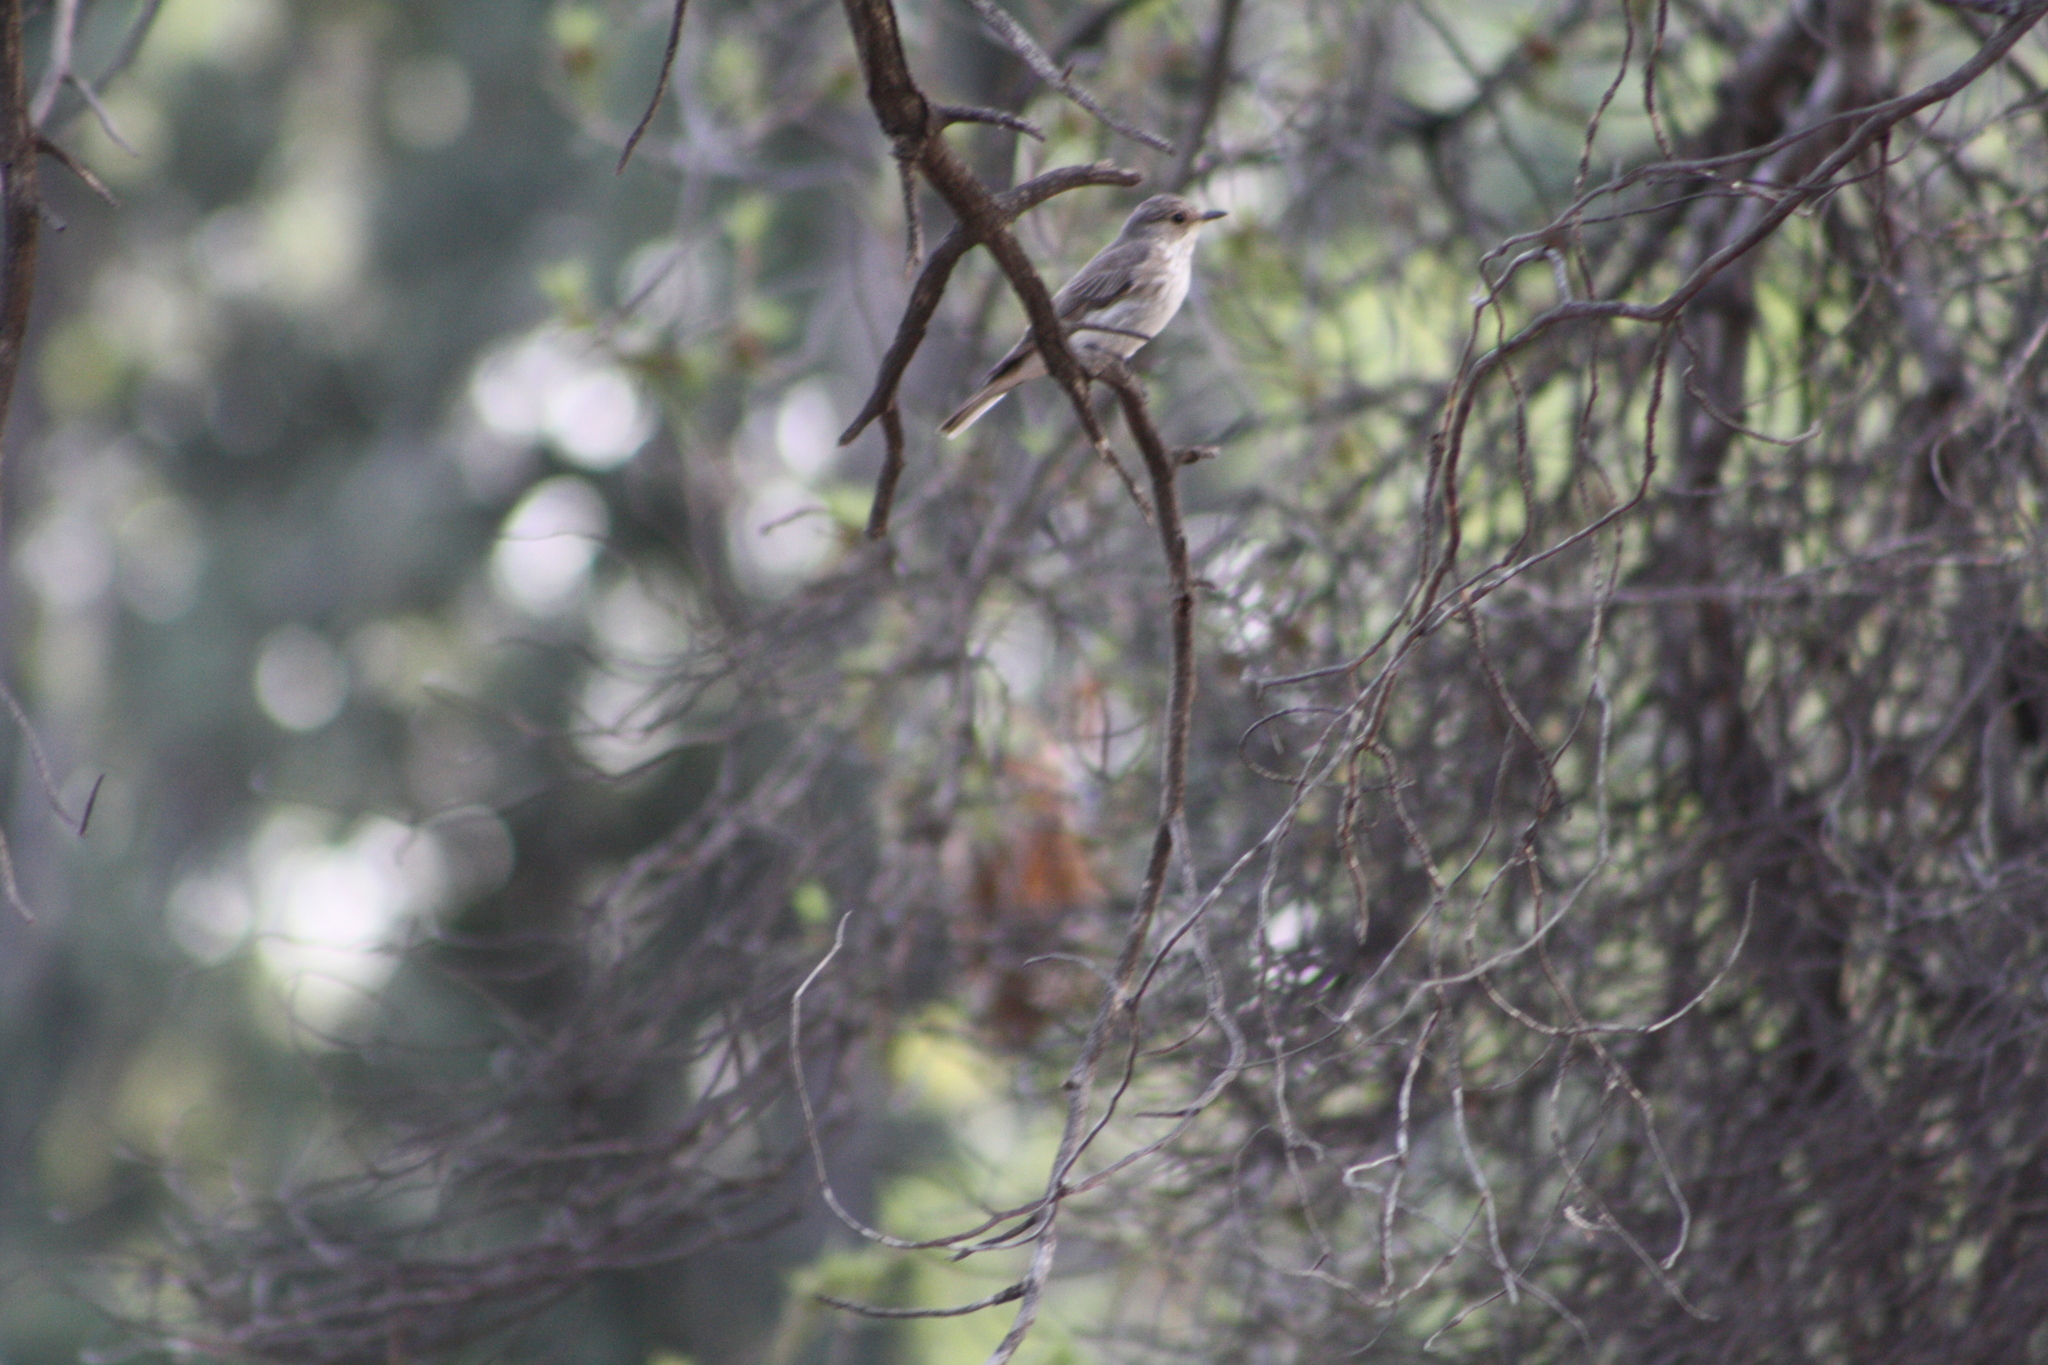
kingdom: Animalia
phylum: Chordata
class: Aves
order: Passeriformes
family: Muscicapidae
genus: Muscicapa
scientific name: Muscicapa striata
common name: Spotted flycatcher
